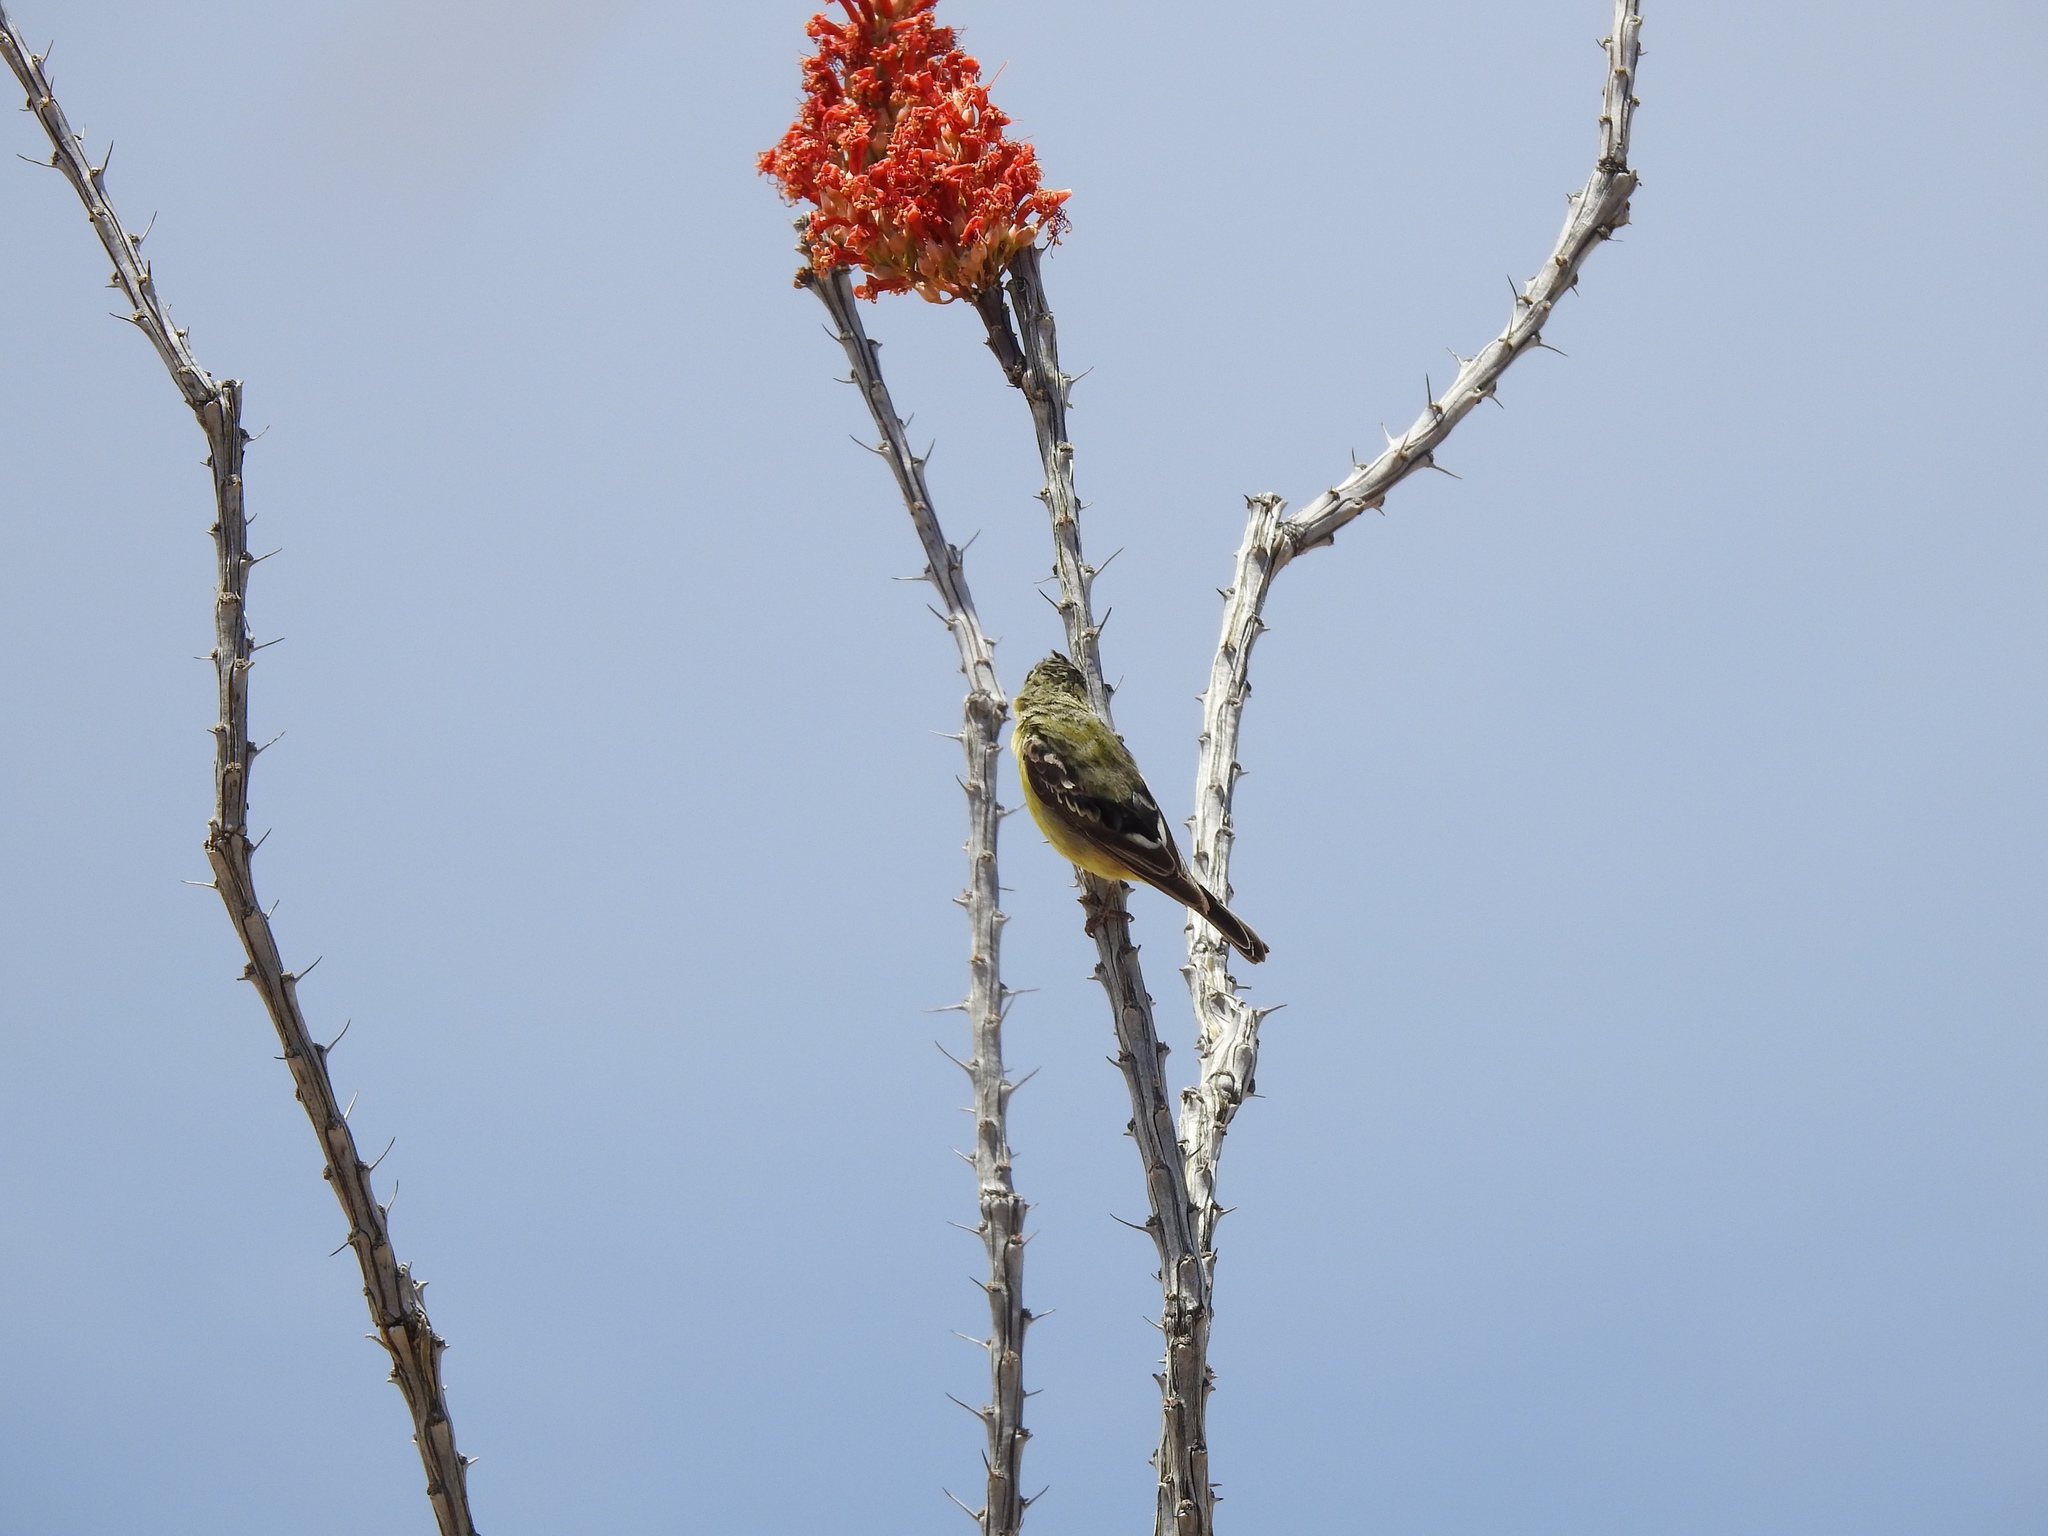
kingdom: Animalia
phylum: Chordata
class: Aves
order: Passeriformes
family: Fringillidae
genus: Spinus
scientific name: Spinus psaltria
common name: Lesser goldfinch
